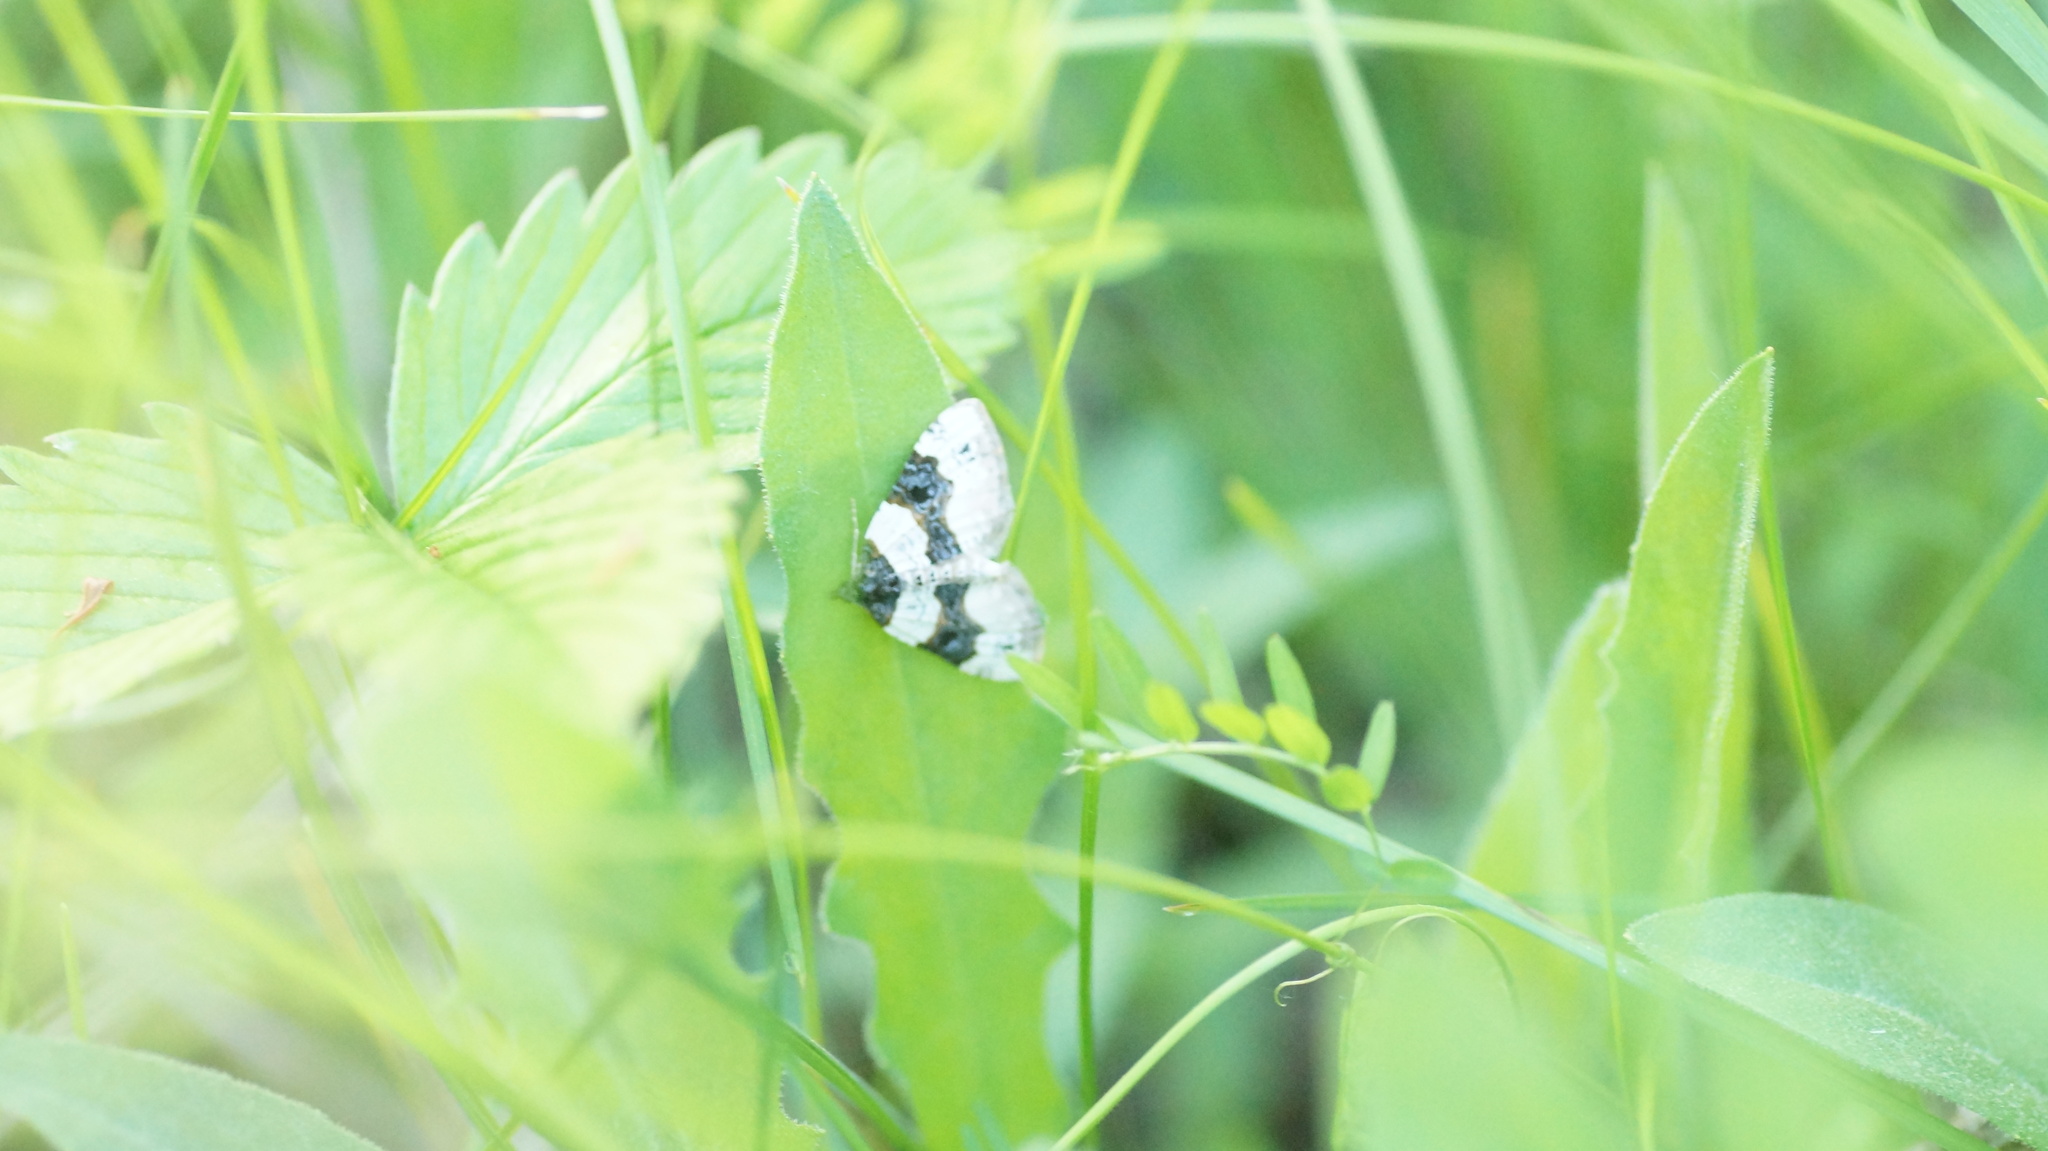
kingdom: Animalia
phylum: Arthropoda
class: Insecta
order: Lepidoptera
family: Geometridae
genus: Cosmorhoe
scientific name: Cosmorhoe ocellata
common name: Purple bar
